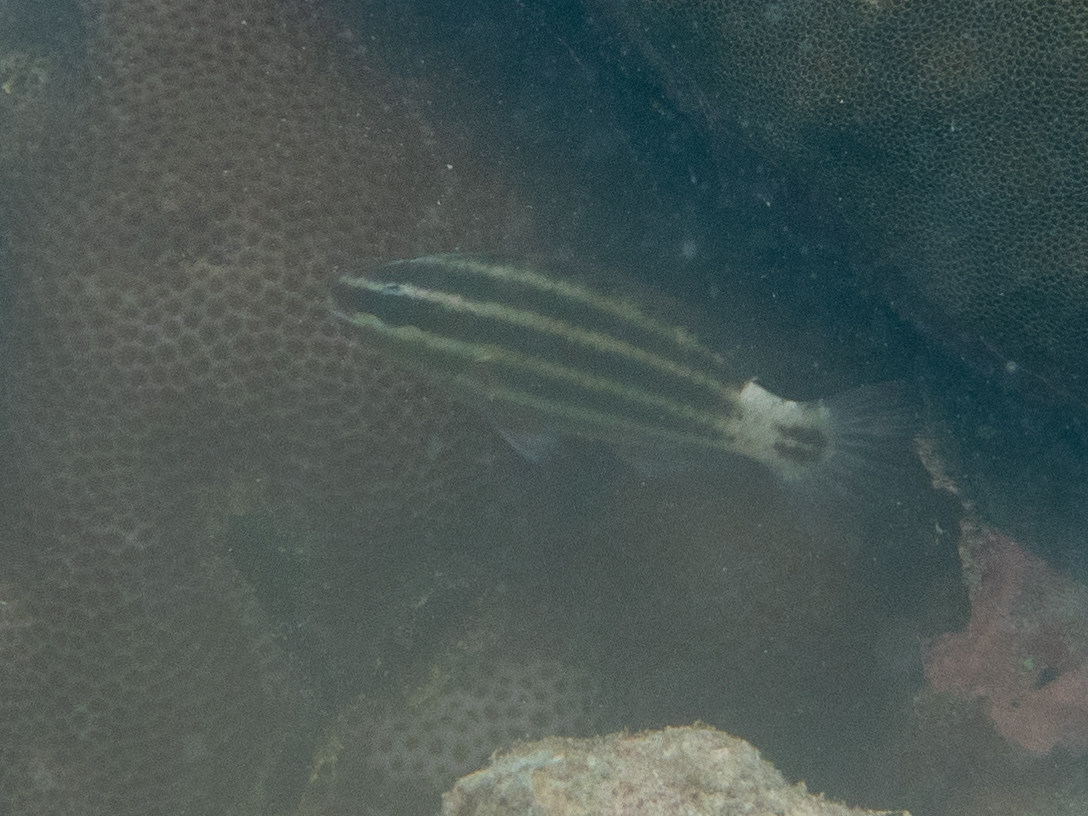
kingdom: Animalia
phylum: Chordata
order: Perciformes
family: Scaridae
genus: Chlorurus
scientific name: Chlorurus sordidus
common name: Bullethead parrotfish
